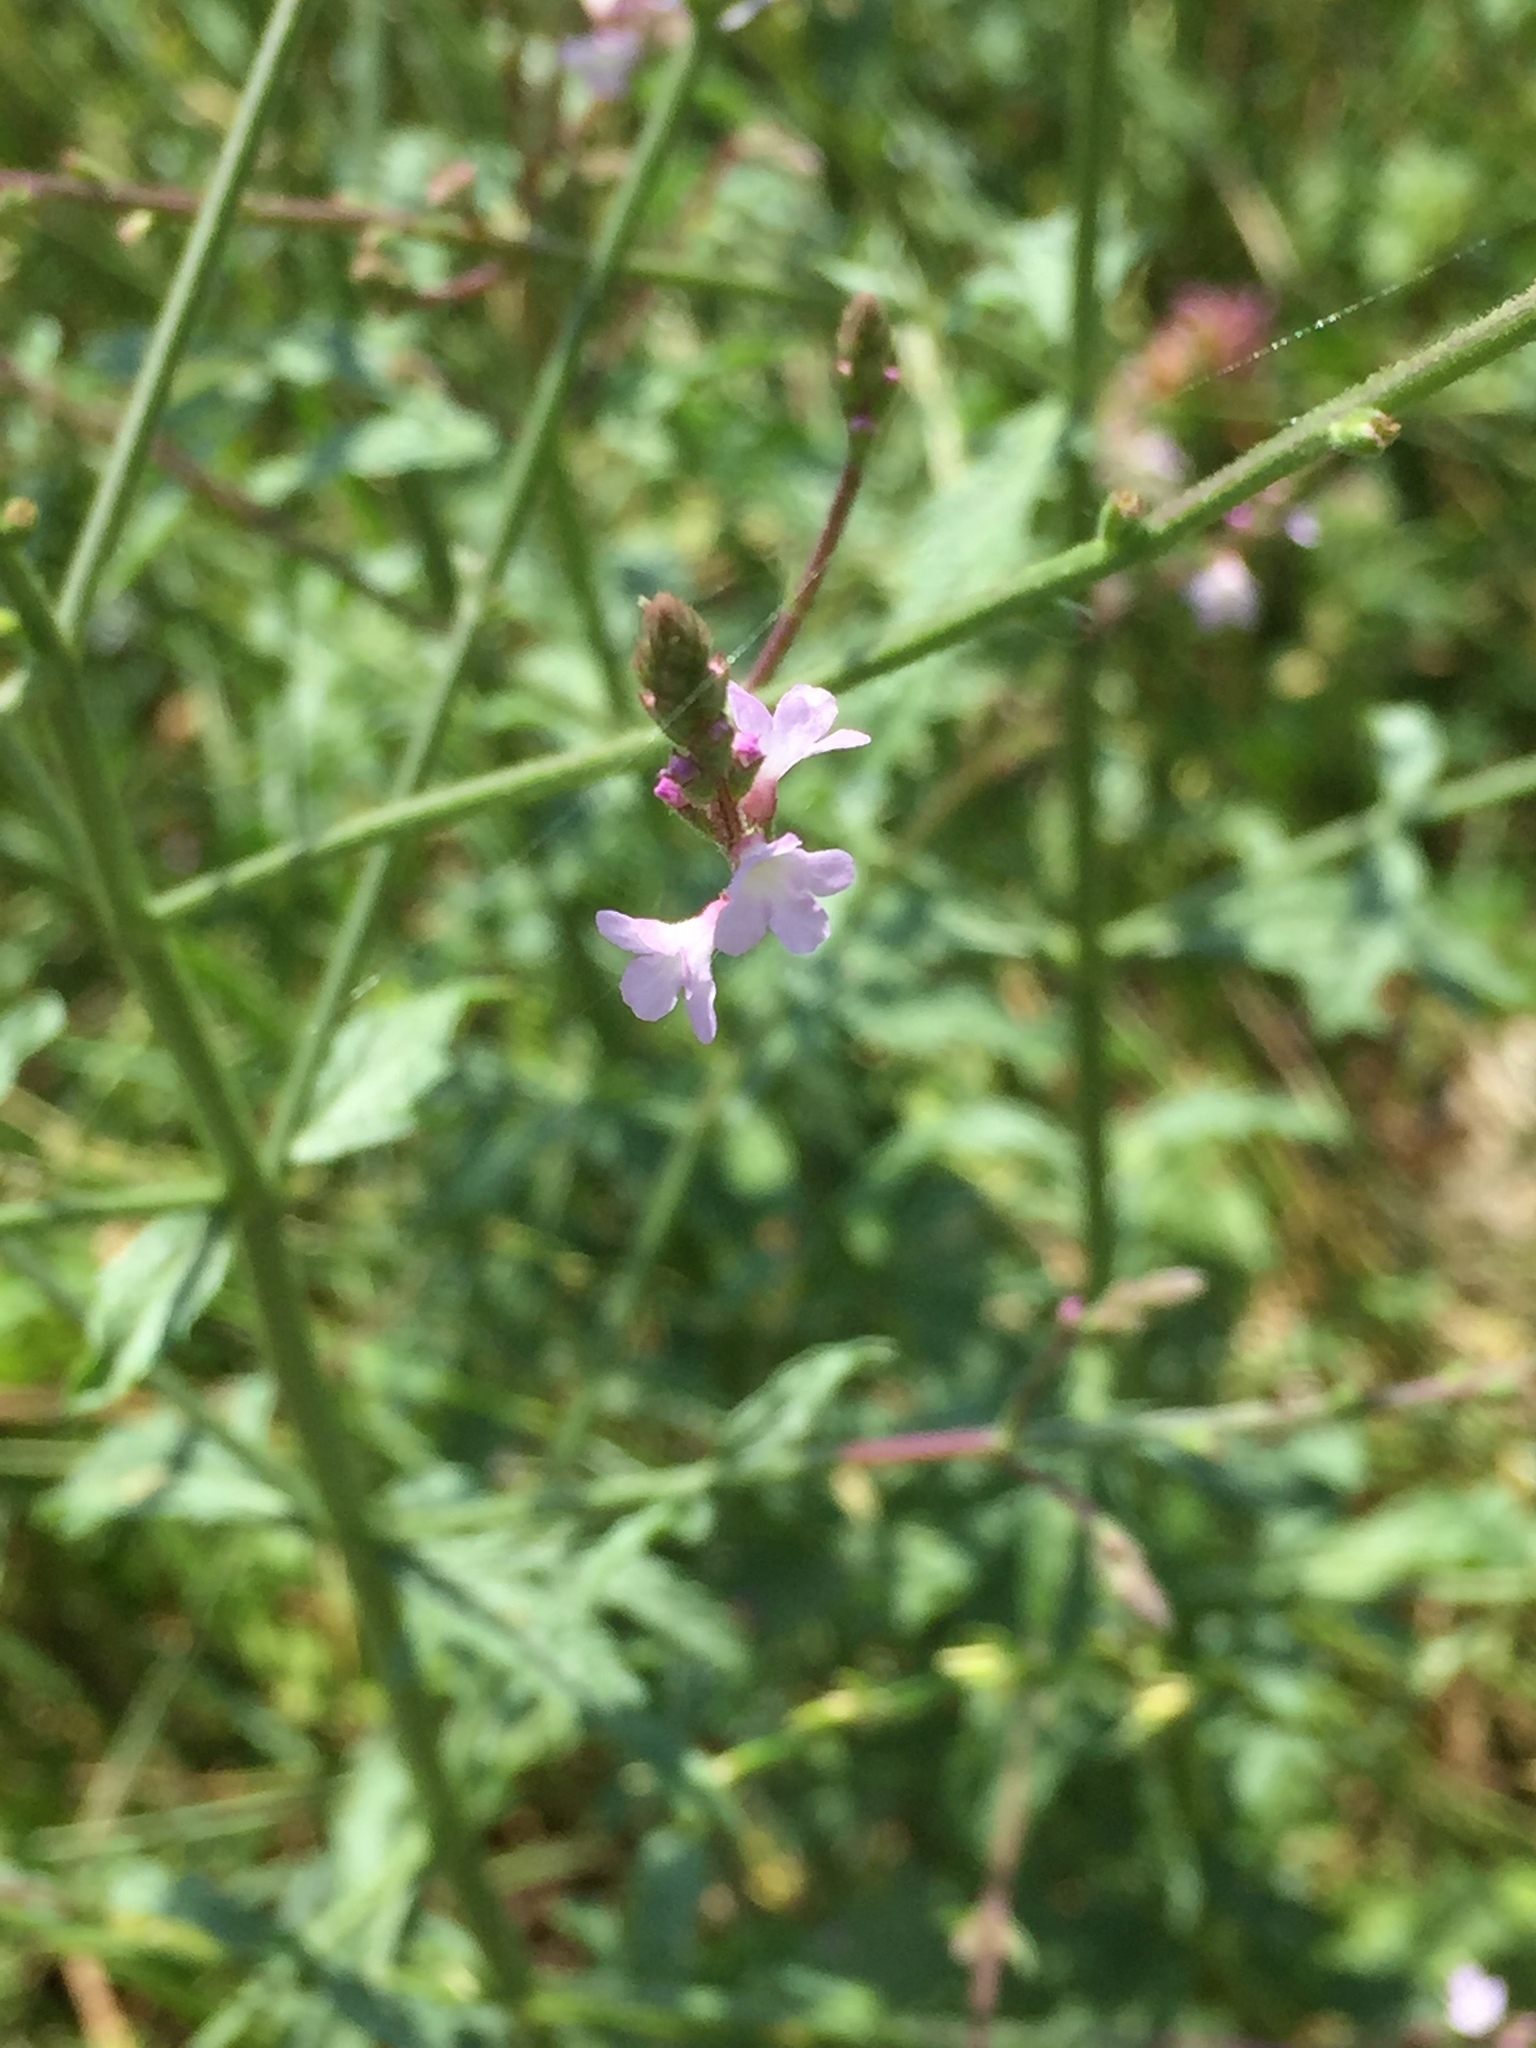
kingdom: Plantae
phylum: Tracheophyta
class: Magnoliopsida
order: Lamiales
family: Verbenaceae
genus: Verbena
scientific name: Verbena officinalis
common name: Vervain
